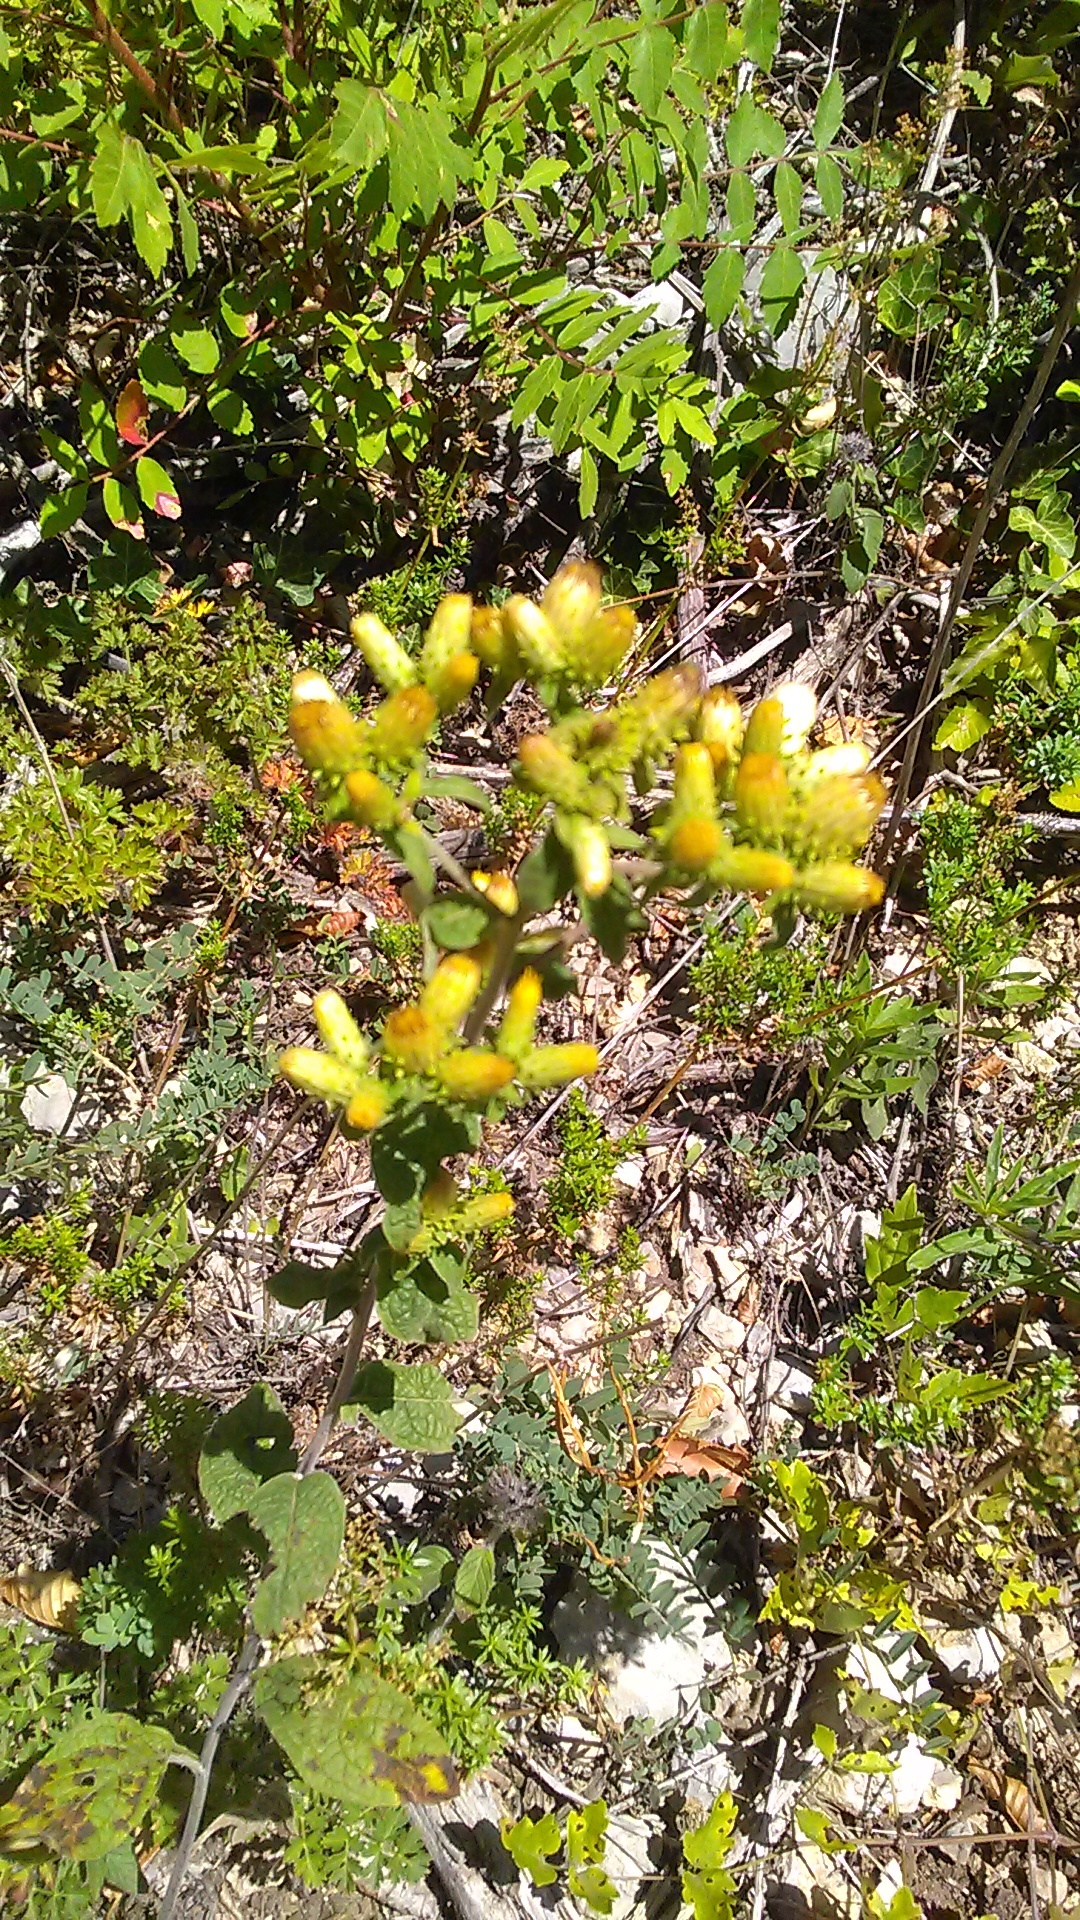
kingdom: Plantae
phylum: Tracheophyta
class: Magnoliopsida
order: Asterales
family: Asteraceae
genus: Pentanema
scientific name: Pentanema squarrosum
